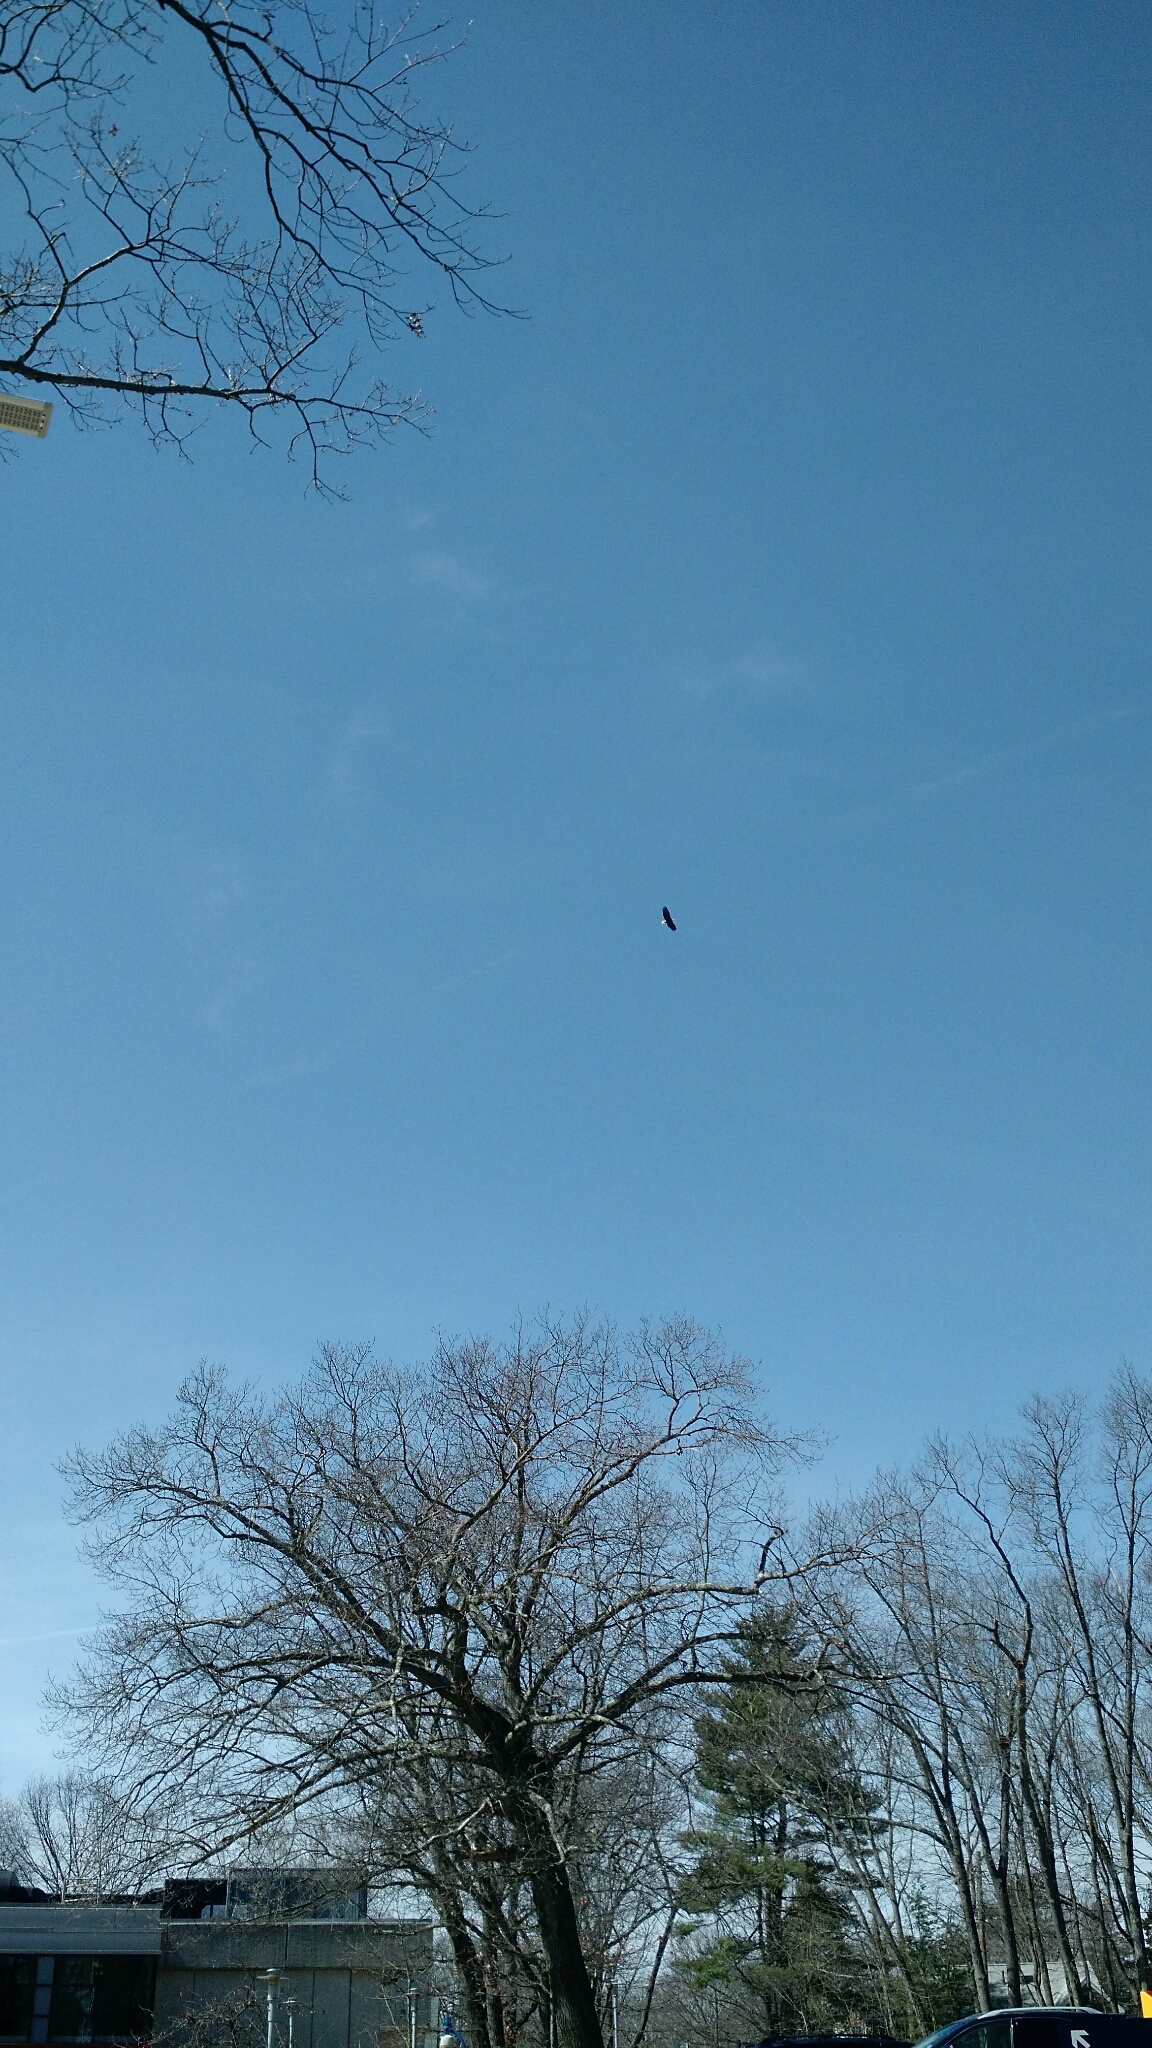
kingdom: Animalia
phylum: Chordata
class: Aves
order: Accipitriformes
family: Accipitridae
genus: Haliaeetus
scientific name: Haliaeetus leucocephalus
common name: Bald eagle
